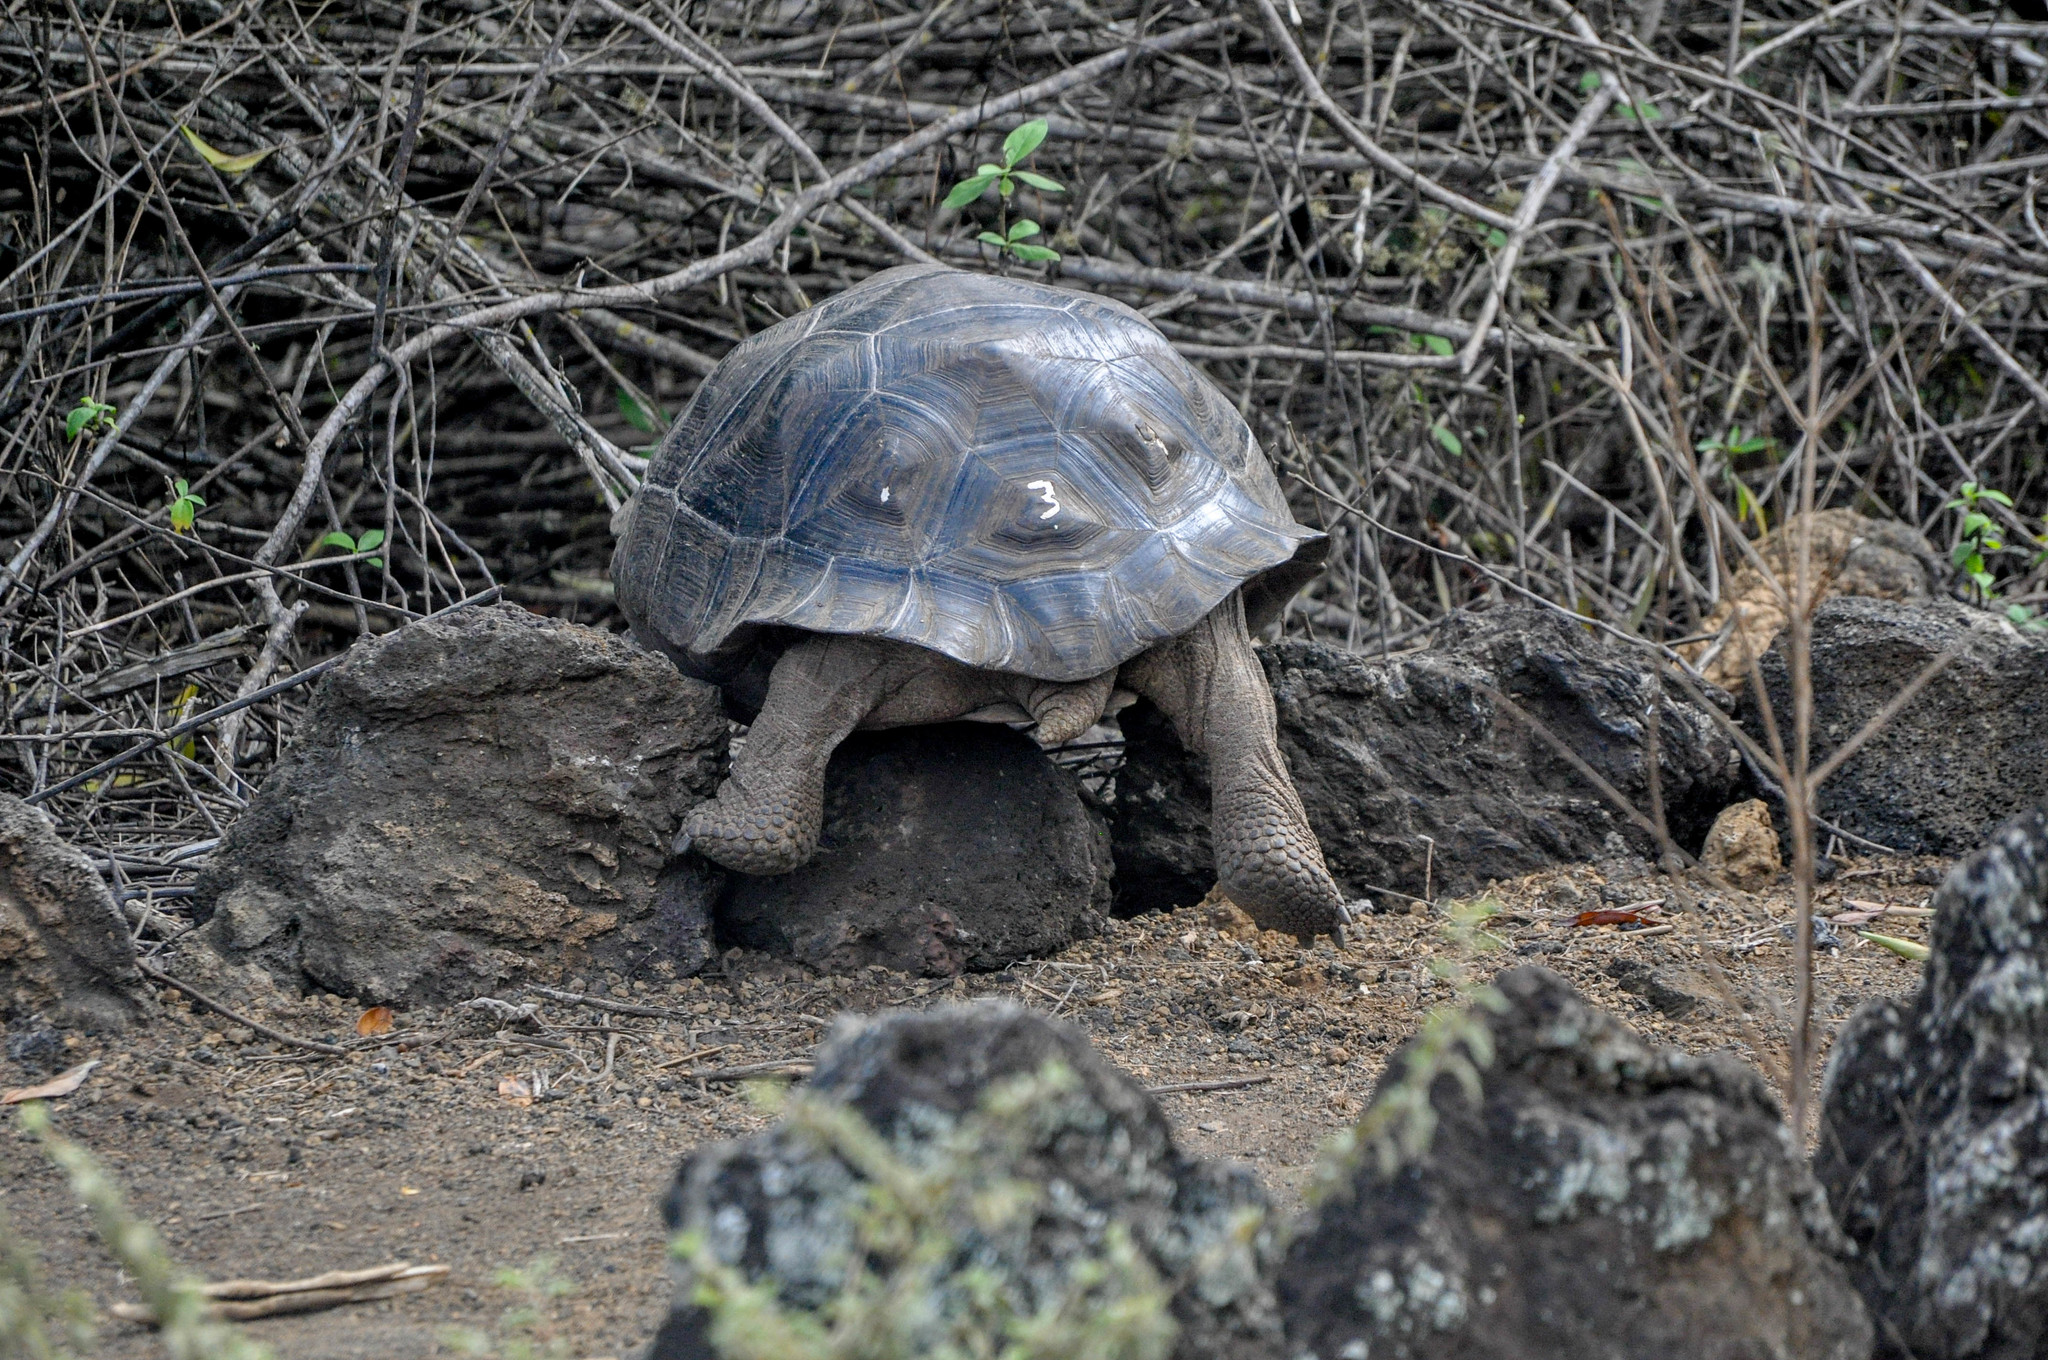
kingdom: Animalia
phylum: Chordata
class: Testudines
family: Testudinidae
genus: Chelonoidis
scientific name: Chelonoidis guntheri
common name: Sierra negra giant tortoise
